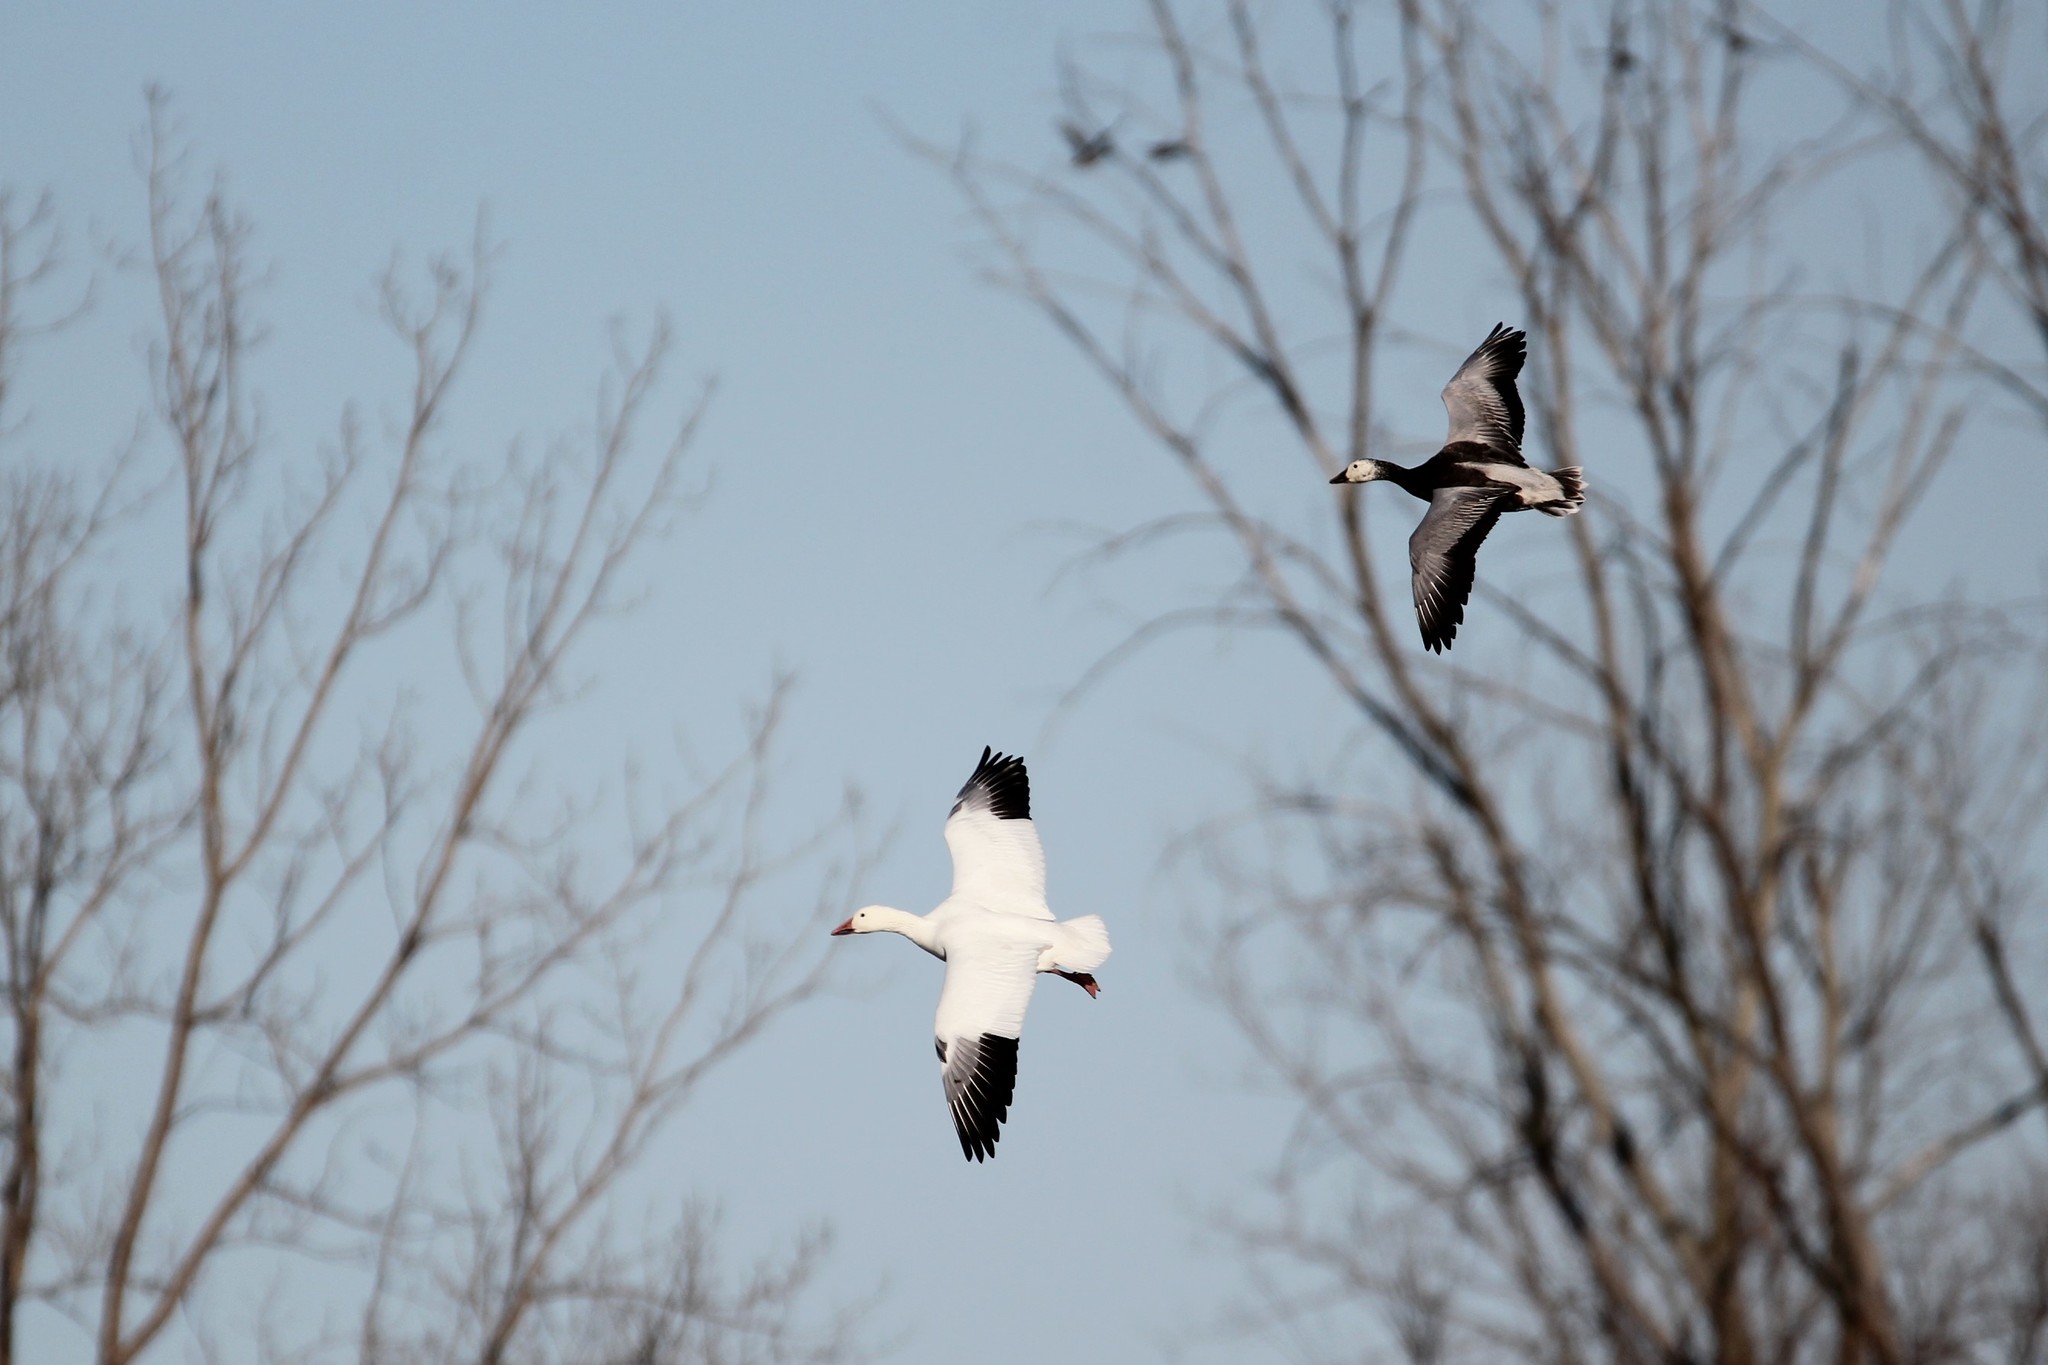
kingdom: Animalia
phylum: Chordata
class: Aves
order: Anseriformes
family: Anatidae
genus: Anser
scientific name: Anser caerulescens
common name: Snow goose
